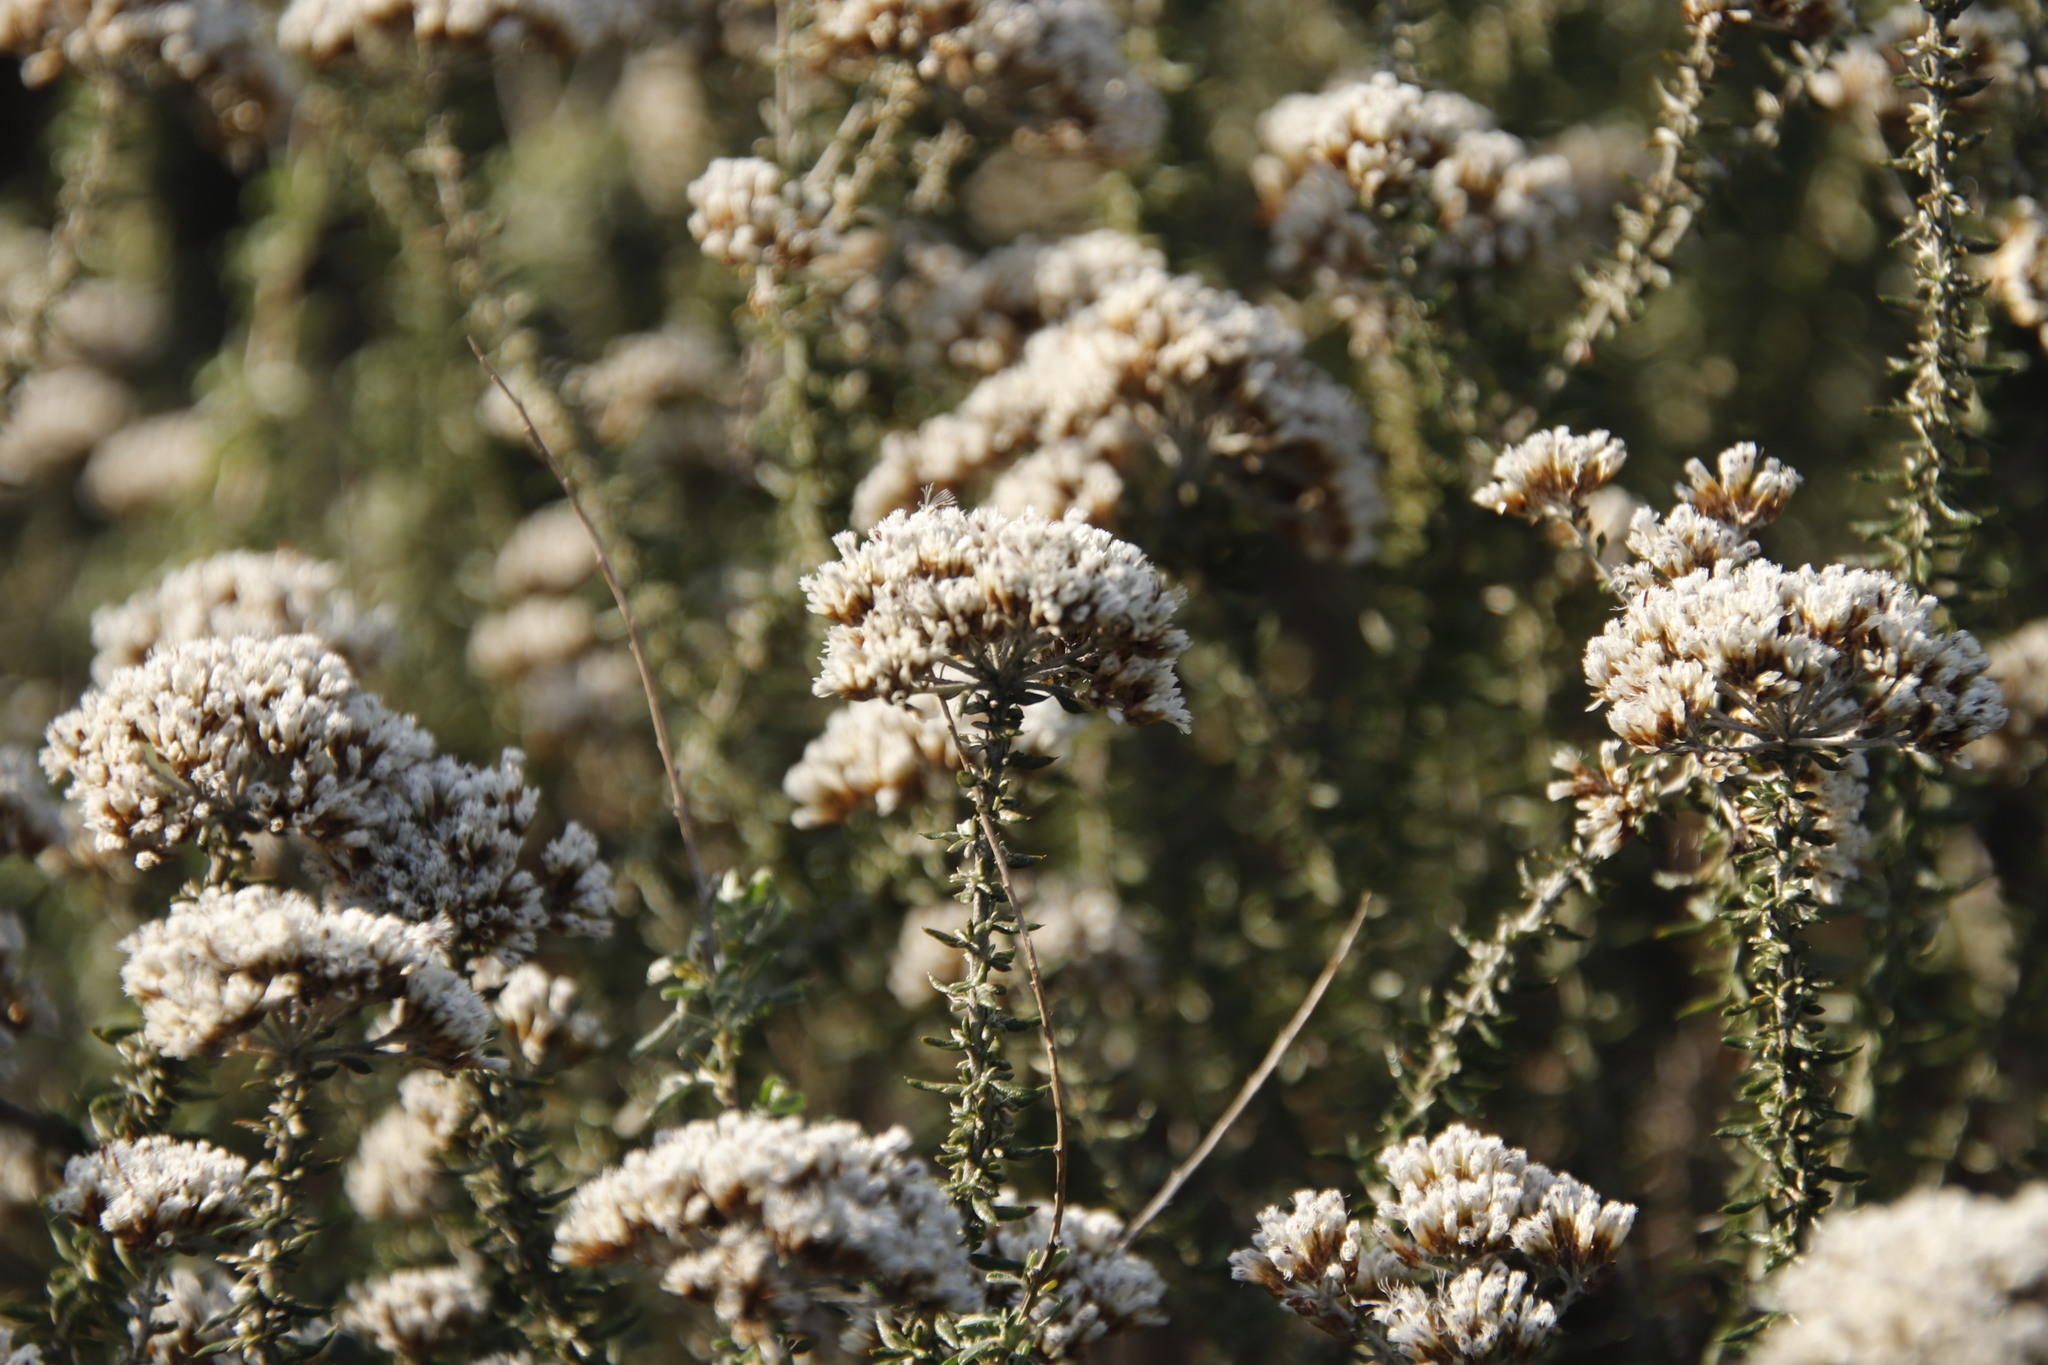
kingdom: Plantae
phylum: Tracheophyta
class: Magnoliopsida
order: Asterales
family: Asteraceae
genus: Metalasia
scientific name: Metalasia densa
